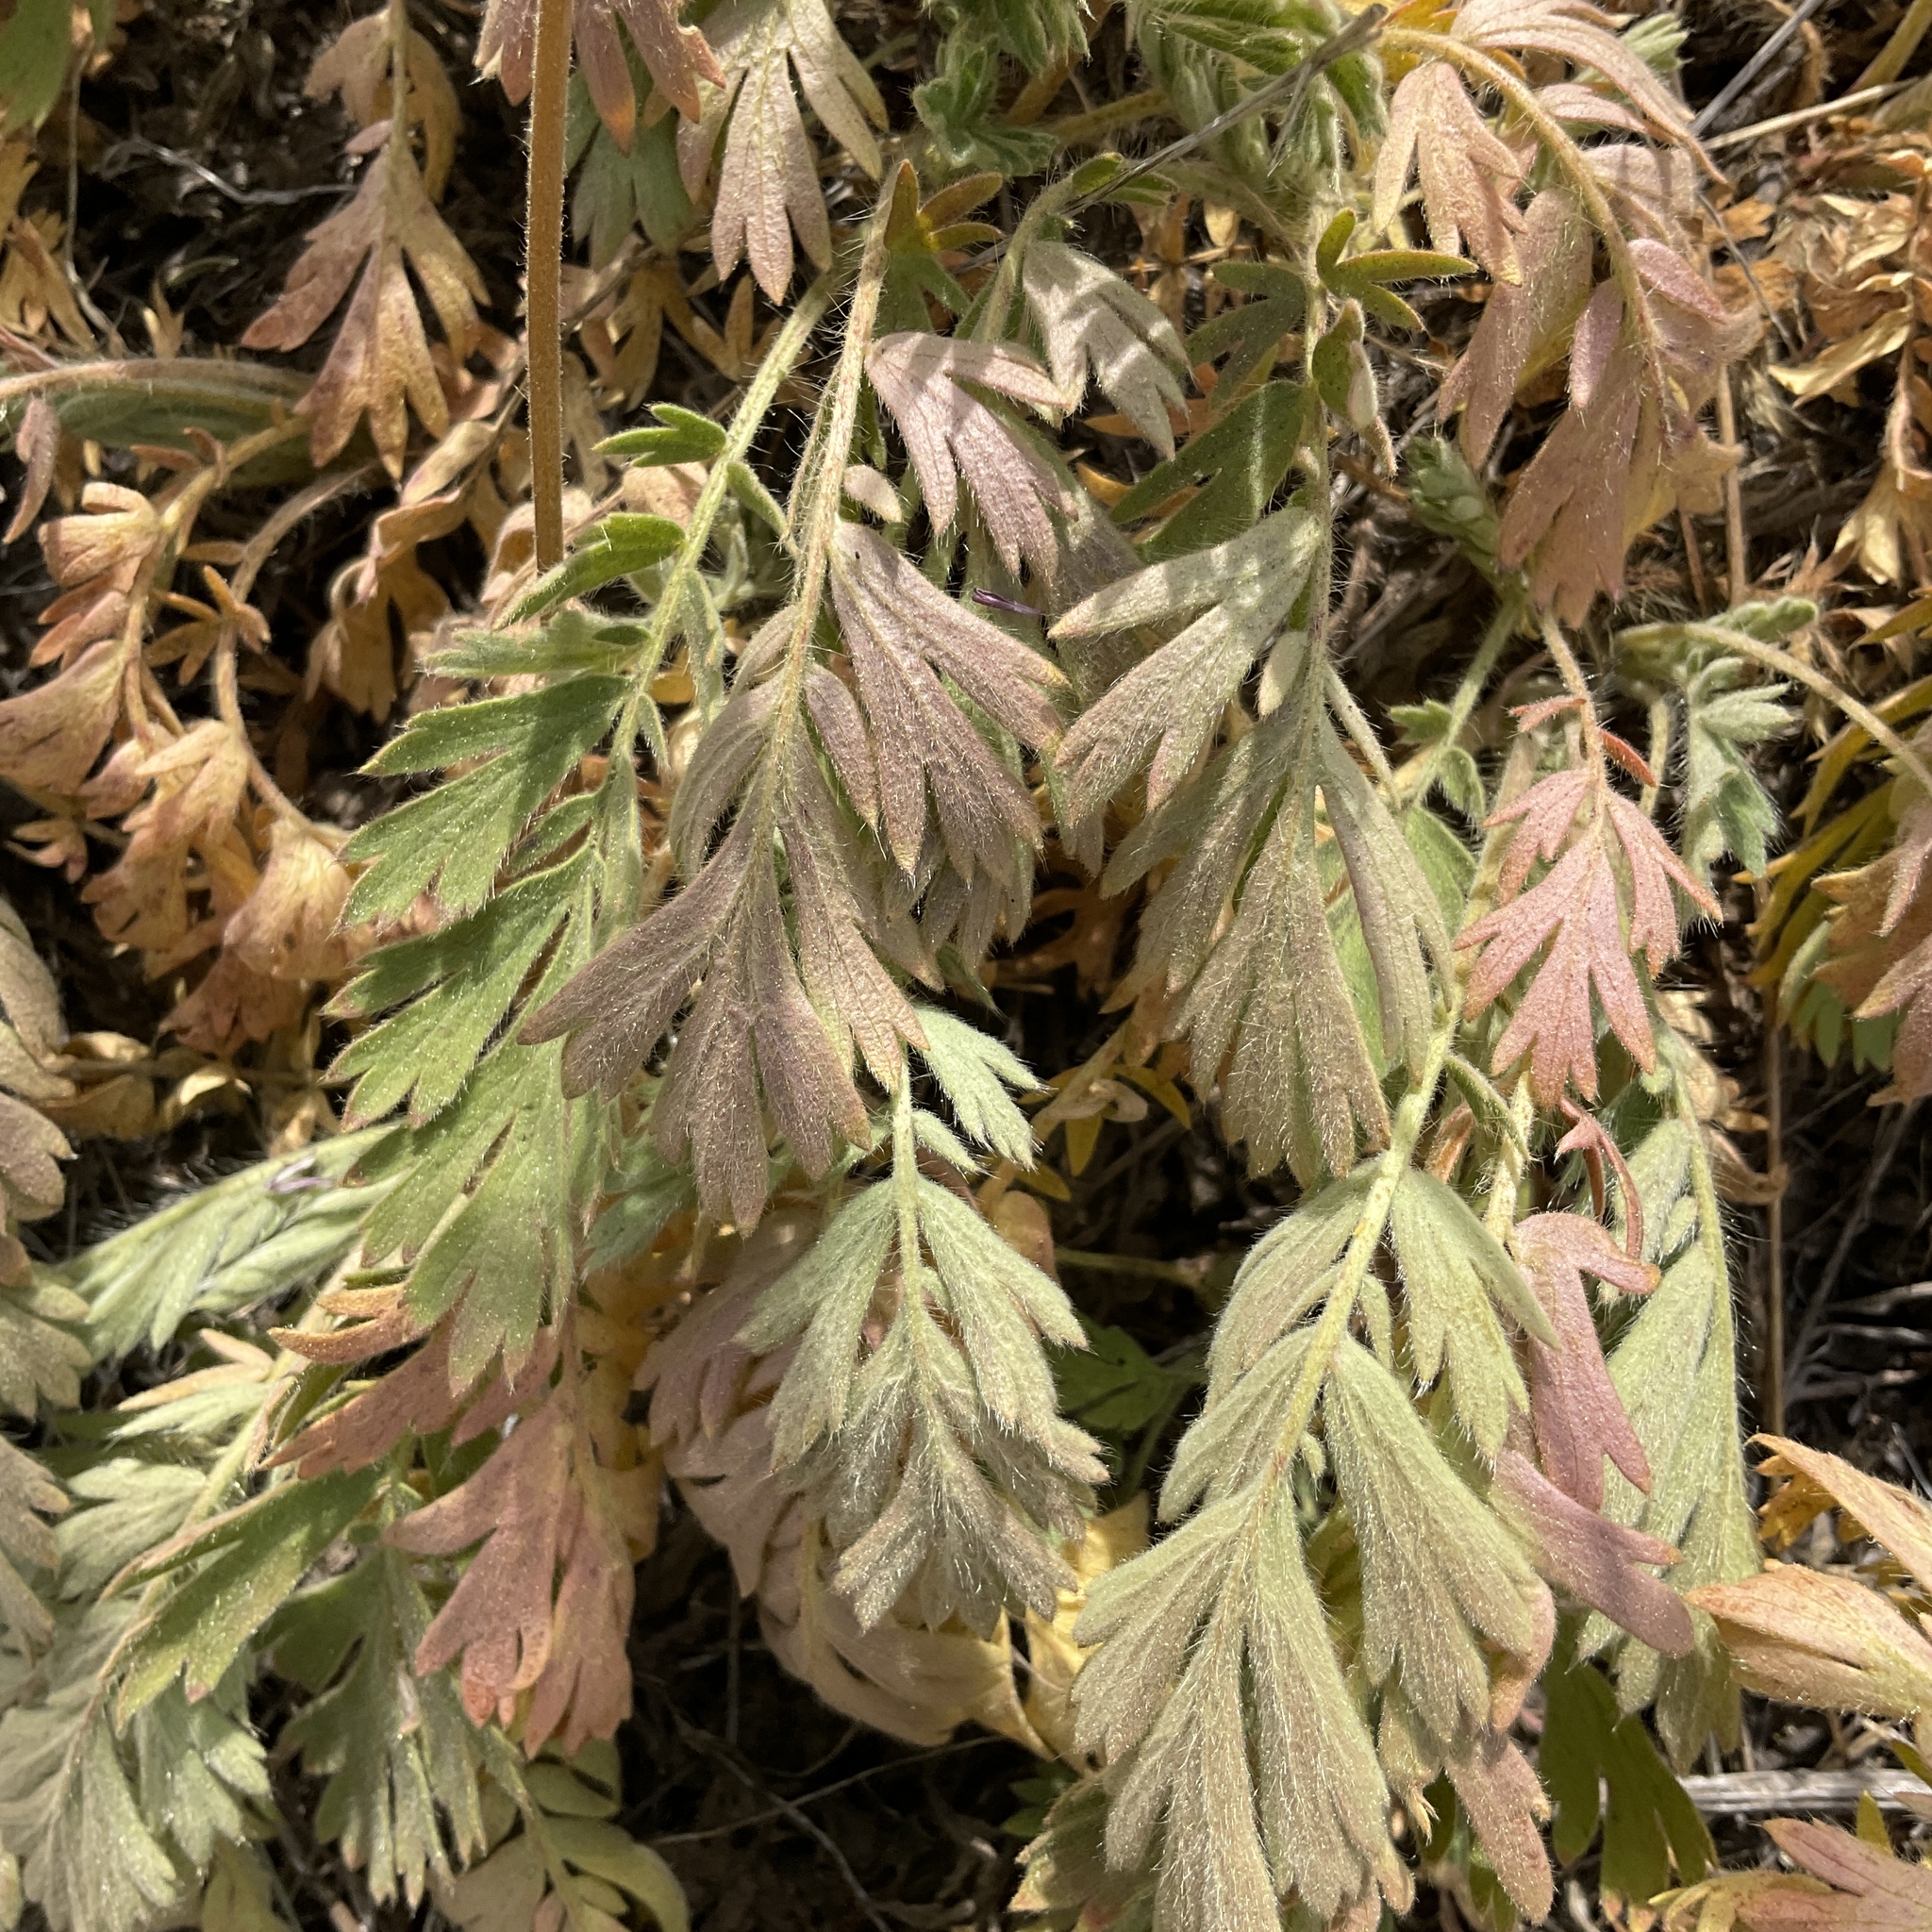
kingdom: Plantae
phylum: Tracheophyta
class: Magnoliopsida
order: Rosales
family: Rosaceae
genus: Geum
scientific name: Geum triflorum
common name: Old man's whiskers
